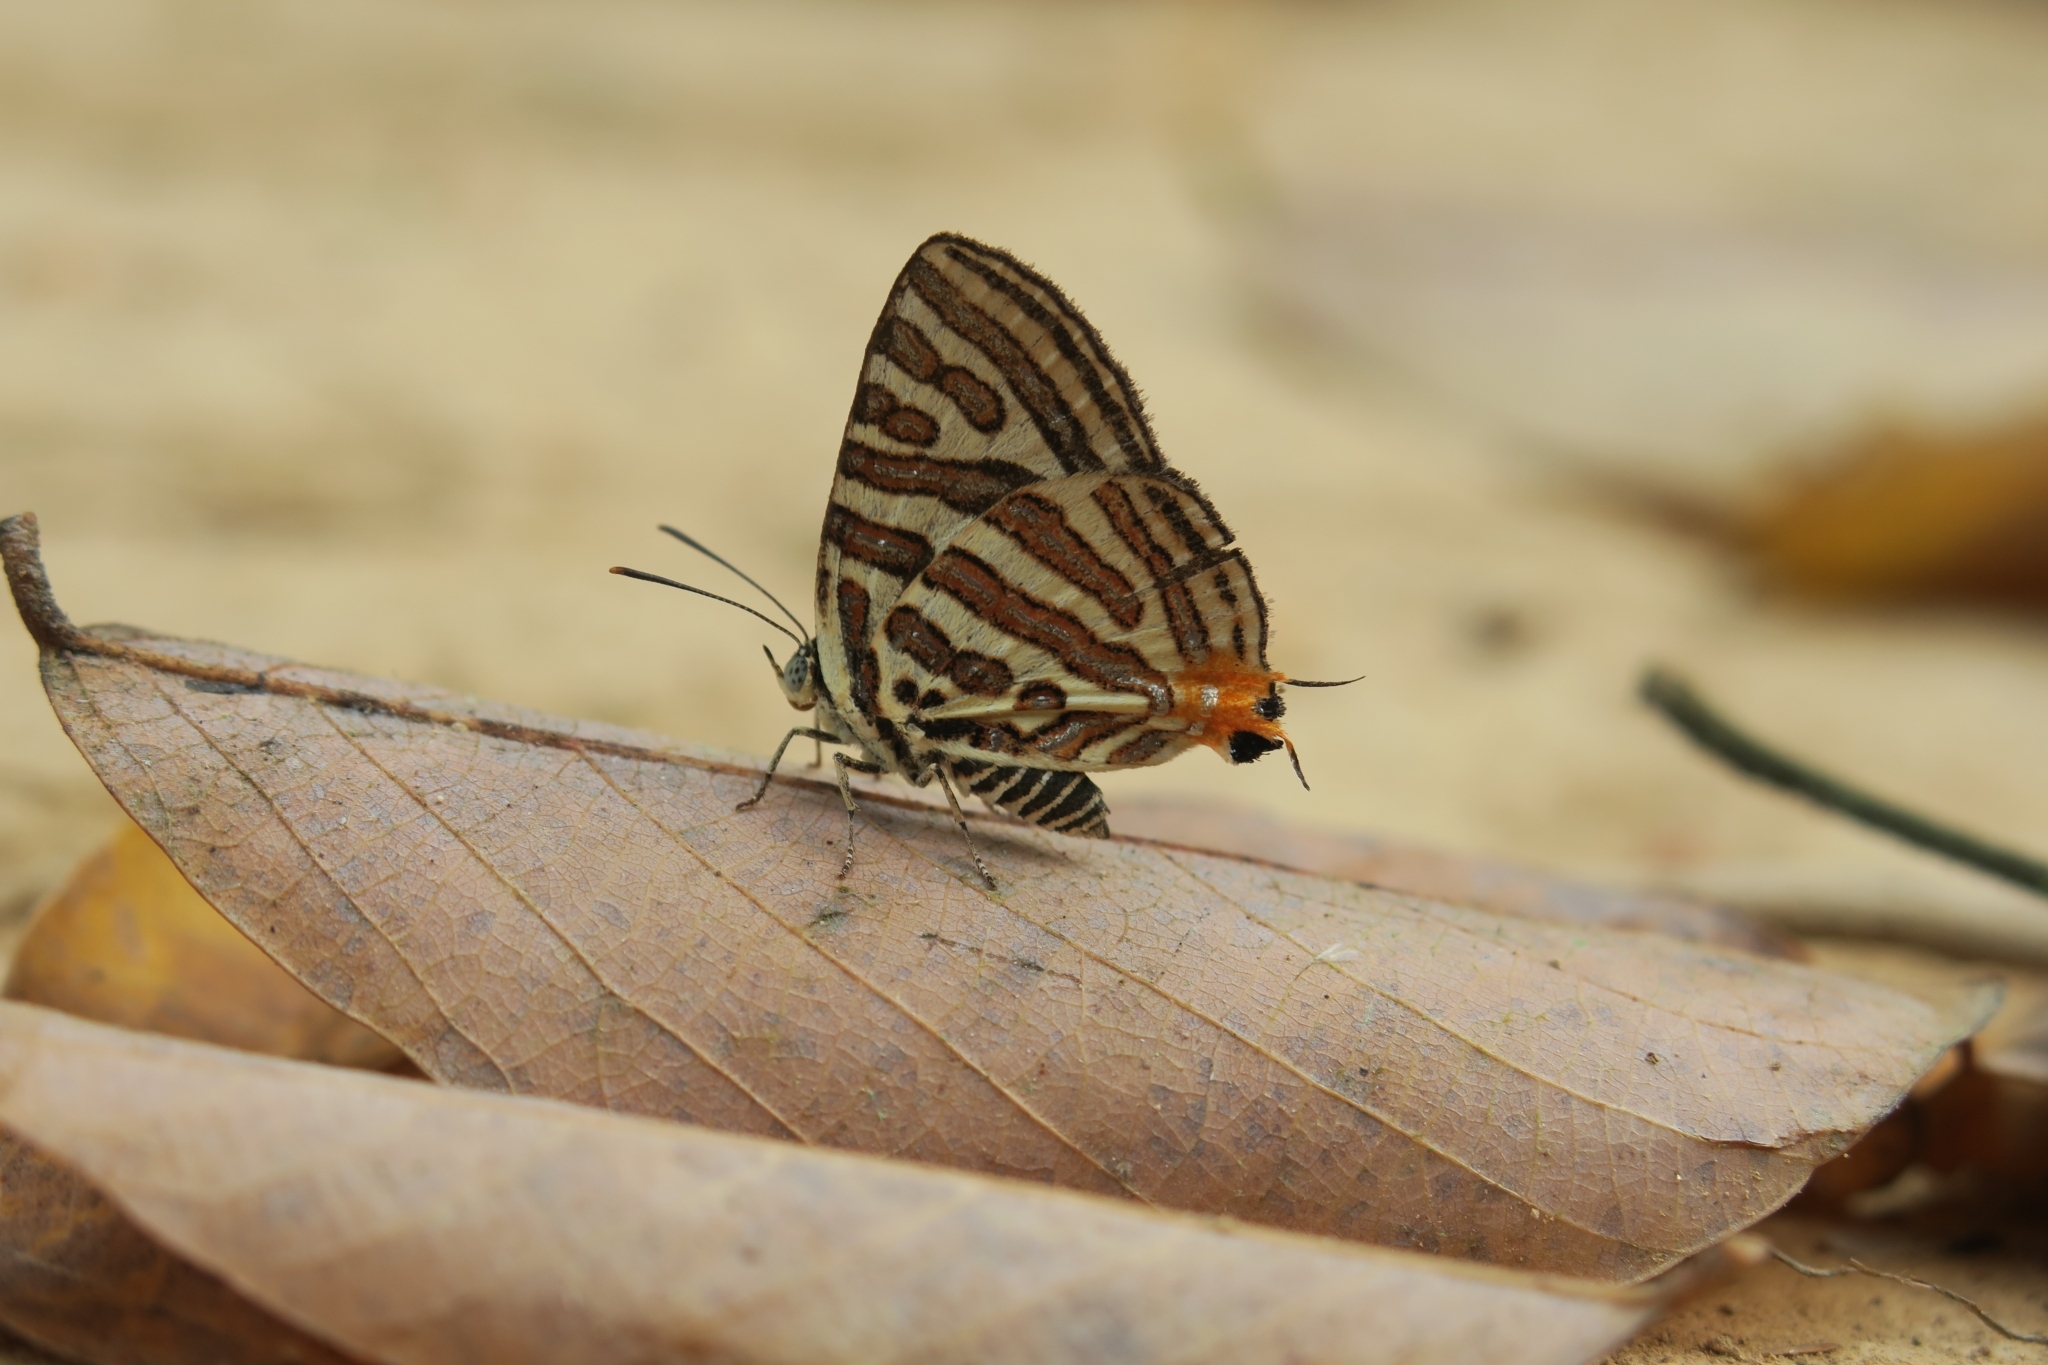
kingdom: Animalia
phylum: Arthropoda
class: Insecta
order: Lepidoptera
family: Lycaenidae
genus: Cigaritis
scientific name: Cigaritis syama
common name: Club silverline
